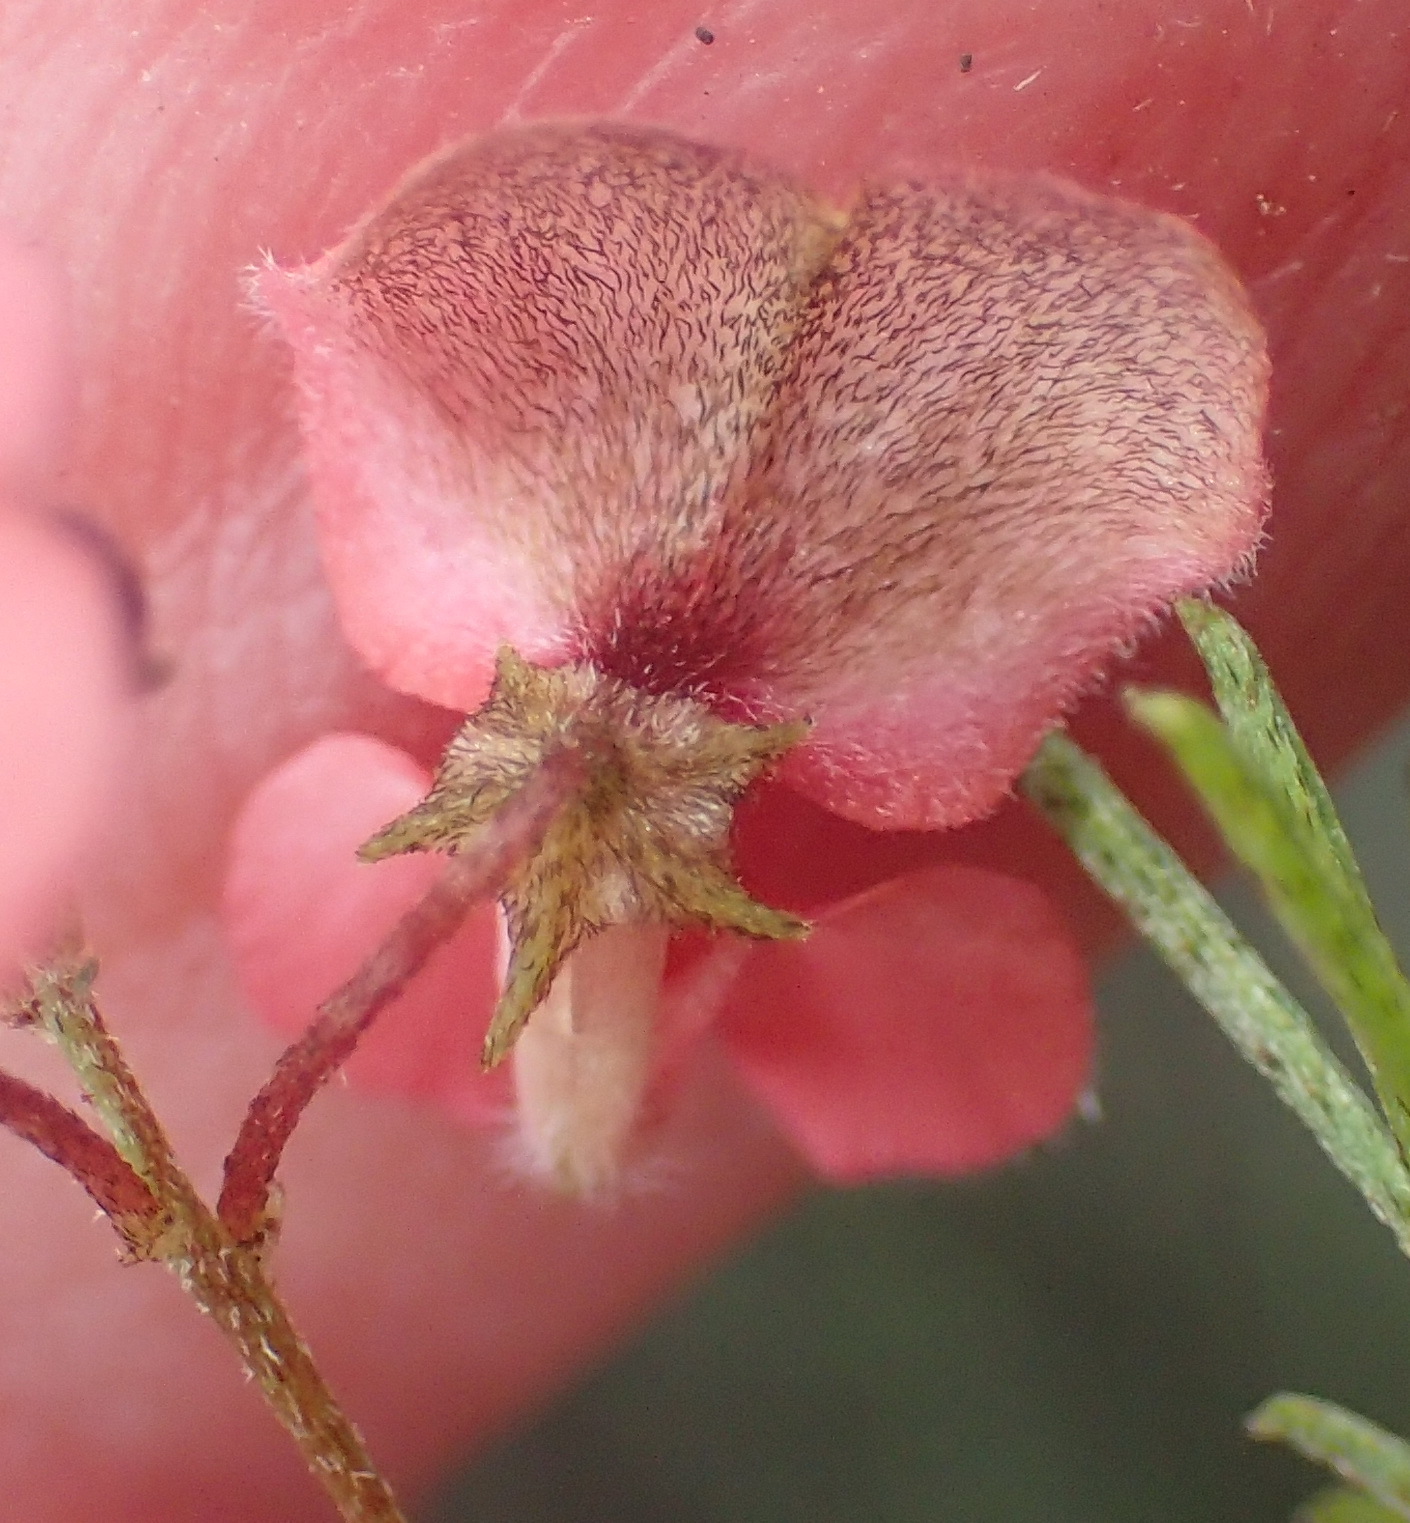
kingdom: Plantae
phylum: Tracheophyta
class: Magnoliopsida
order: Fabales
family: Fabaceae
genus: Indigofera
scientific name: Indigofera verrucosa
